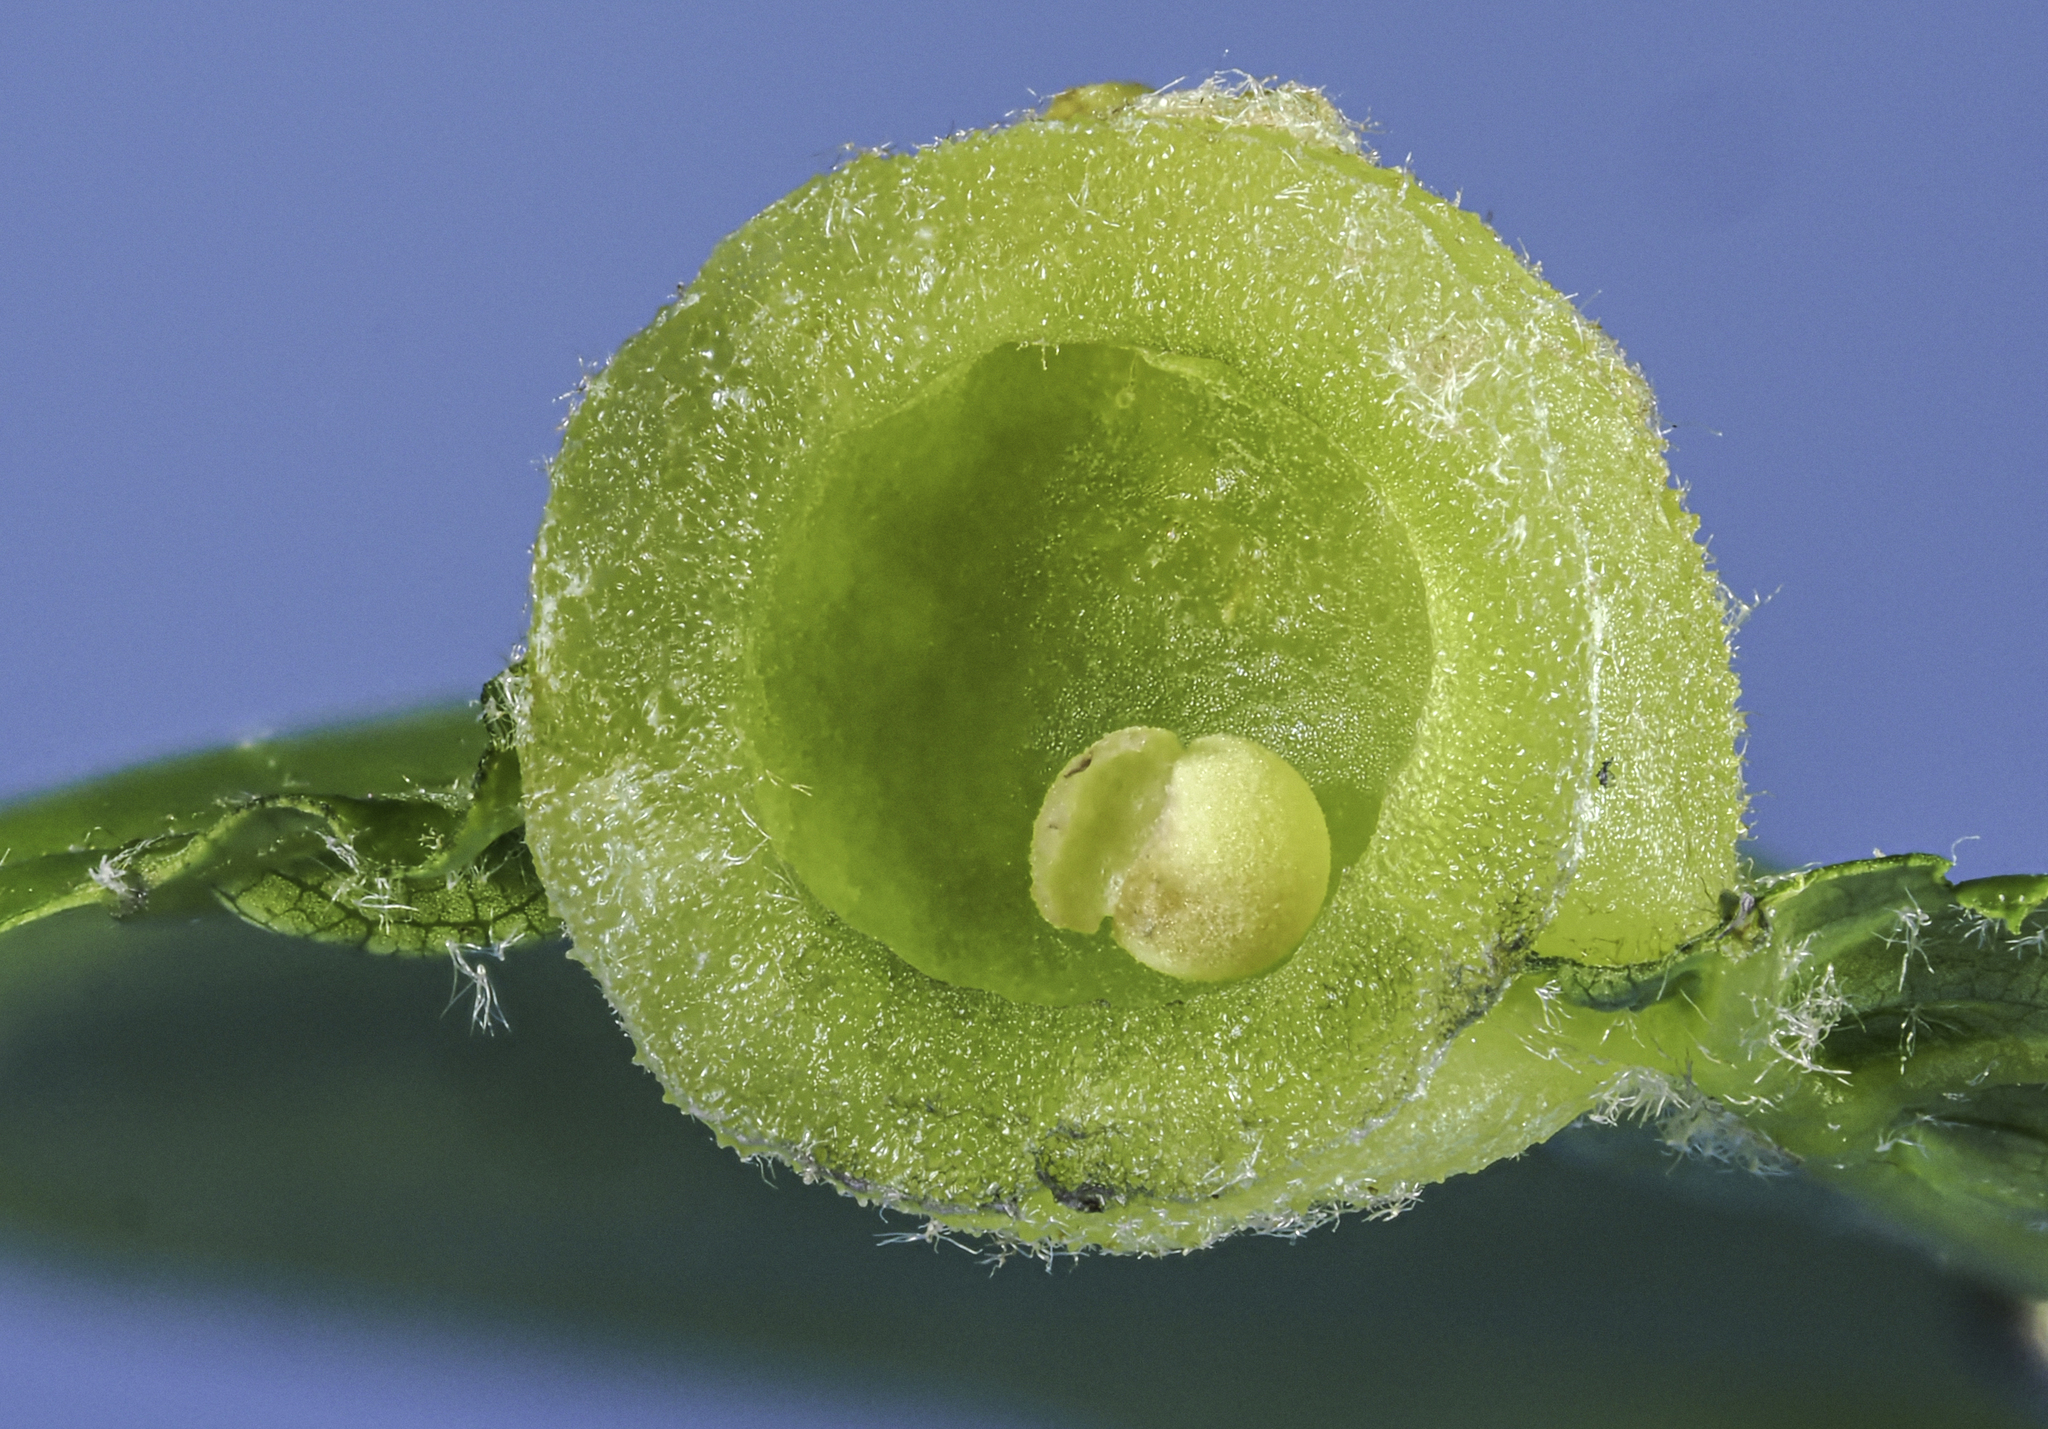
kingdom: Animalia
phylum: Arthropoda
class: Insecta
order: Hymenoptera
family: Cynipidae
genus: Dryocosmus
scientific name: Dryocosmus quercuspalustris
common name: Succulent oak gall wasp
